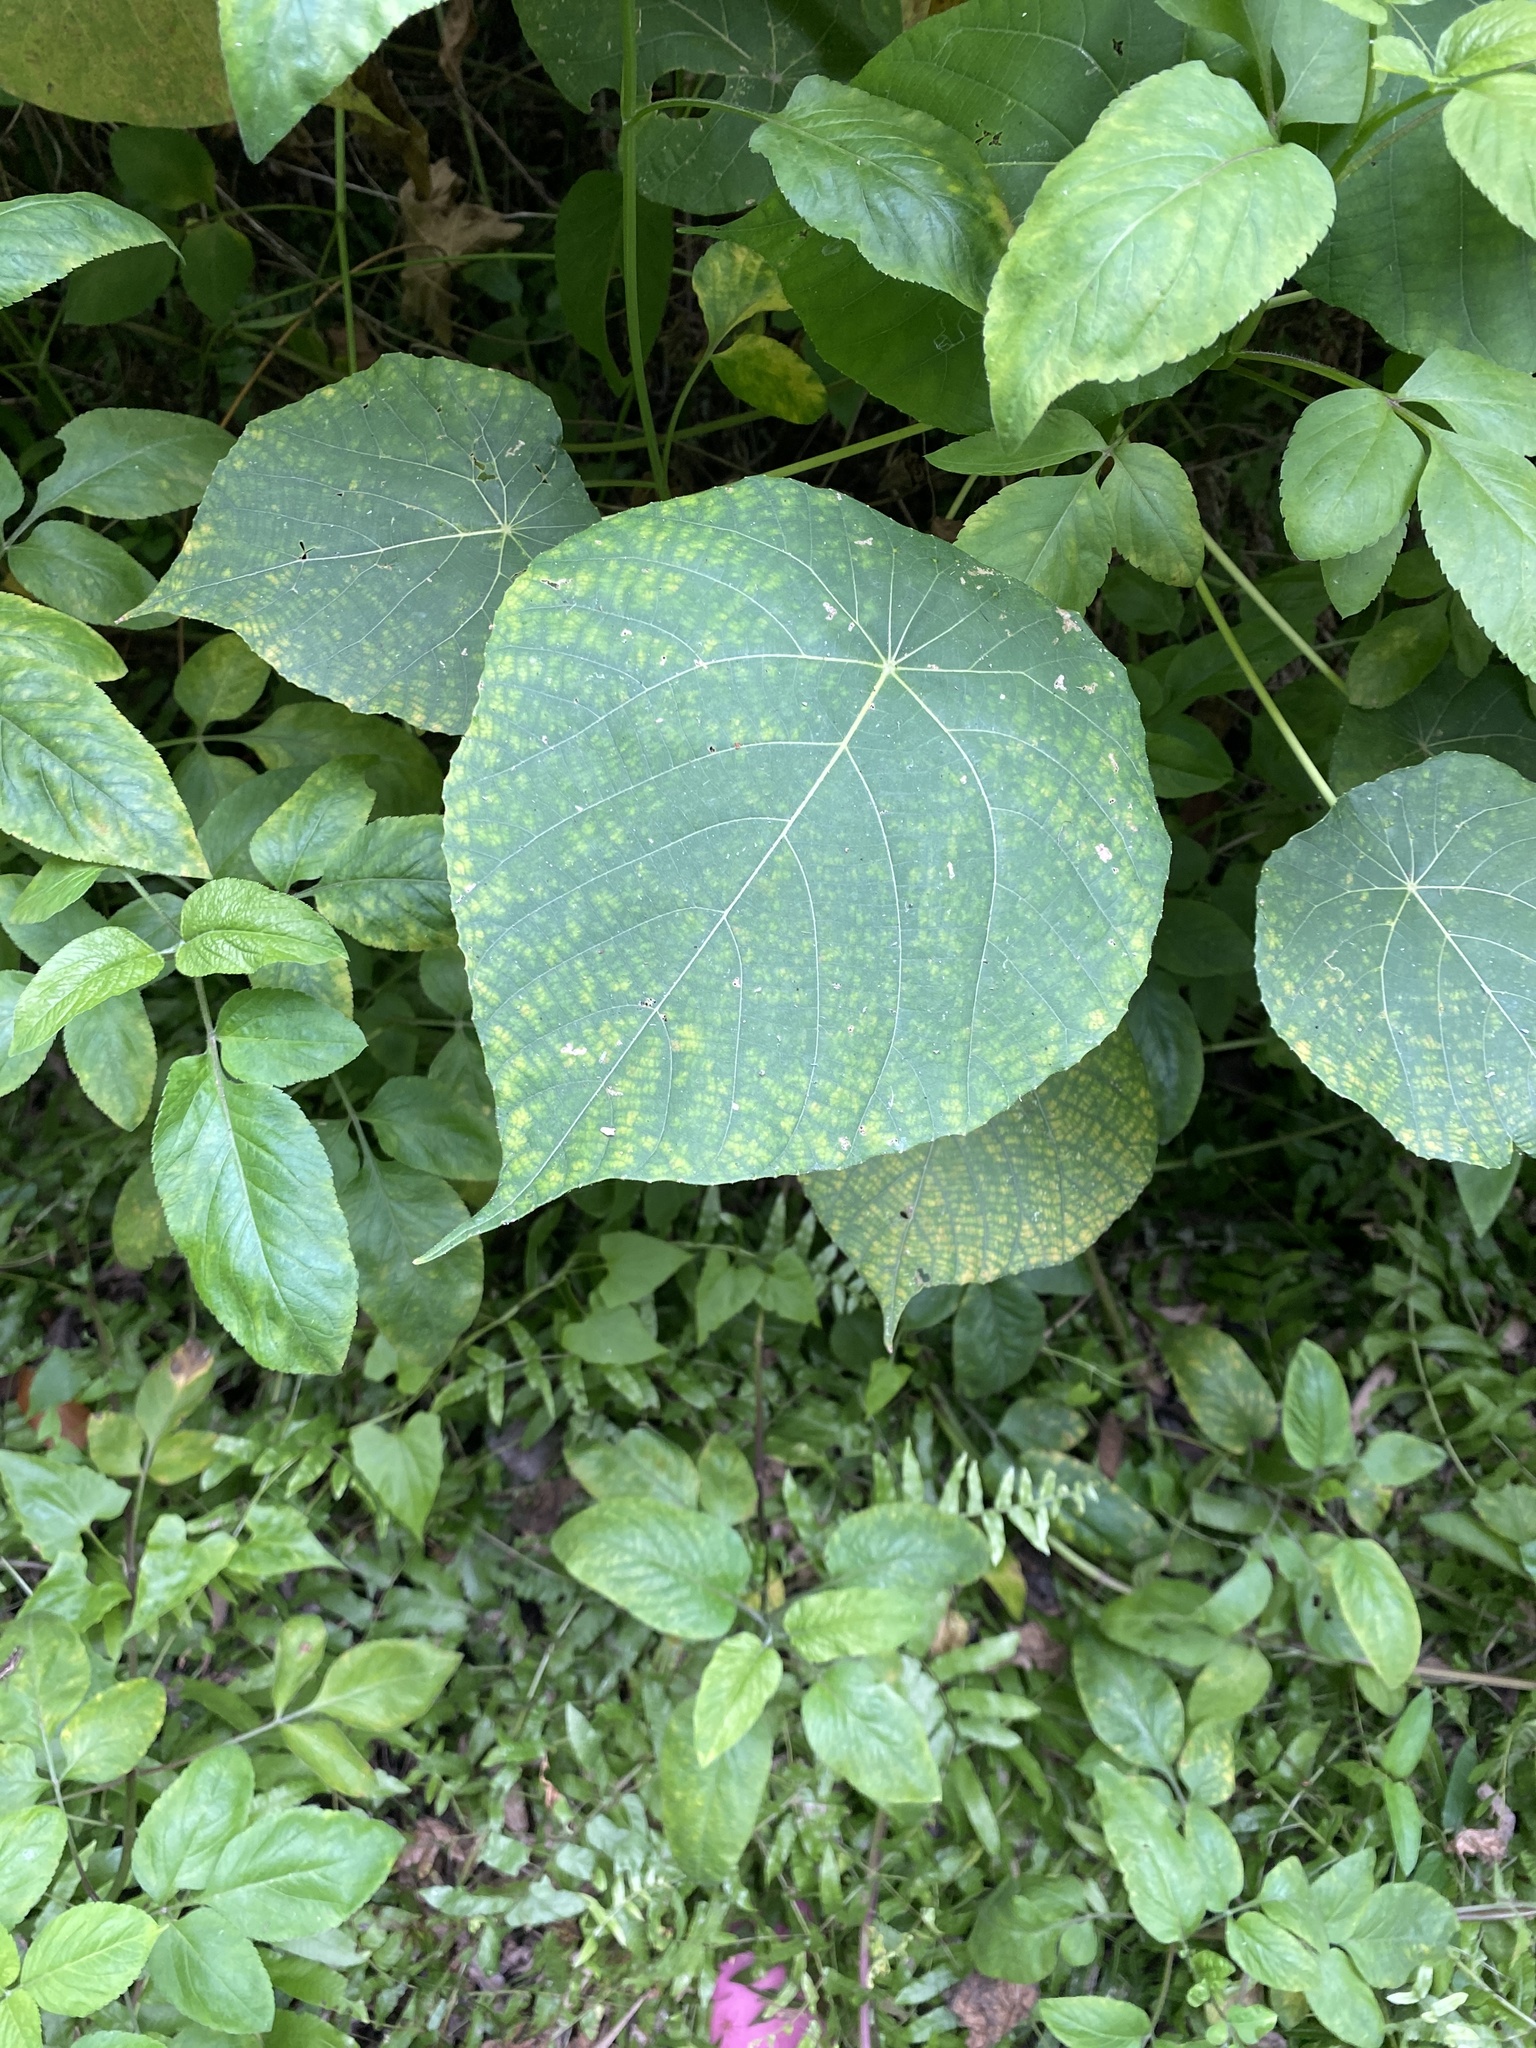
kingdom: Plantae
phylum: Tracheophyta
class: Magnoliopsida
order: Malpighiales
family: Euphorbiaceae
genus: Macaranga
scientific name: Macaranga tanarius
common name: Parasol leaf tree
